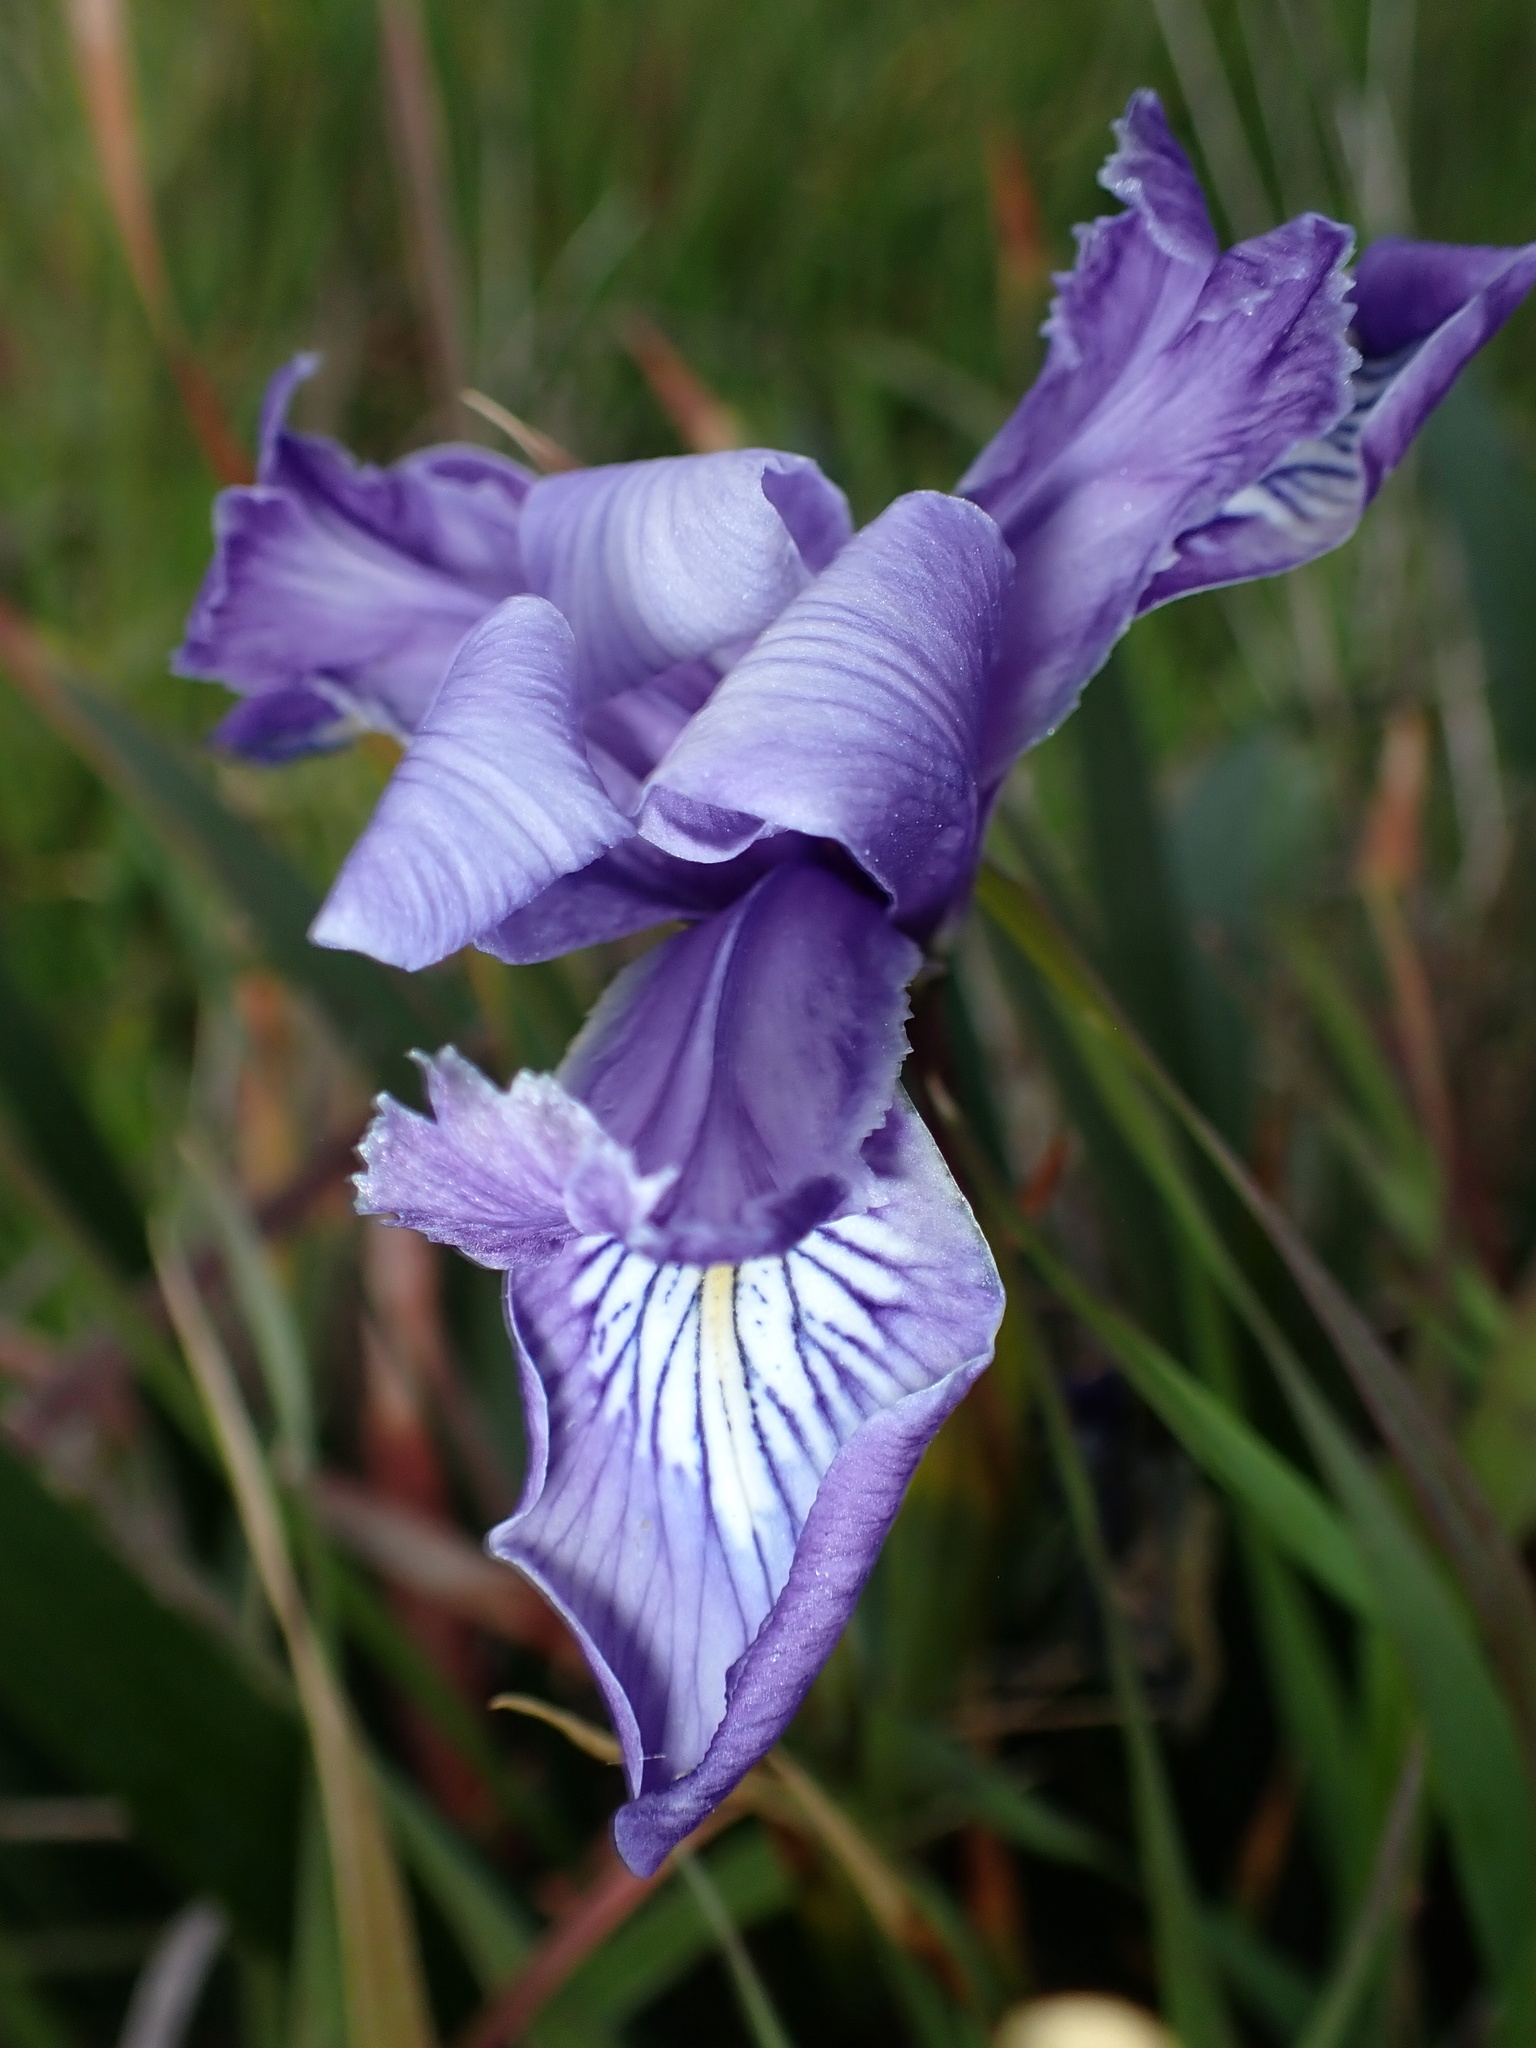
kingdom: Plantae
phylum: Tracheophyta
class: Liliopsida
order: Asparagales
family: Iridaceae
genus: Iris
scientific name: Iris douglasiana
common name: Marin iris
